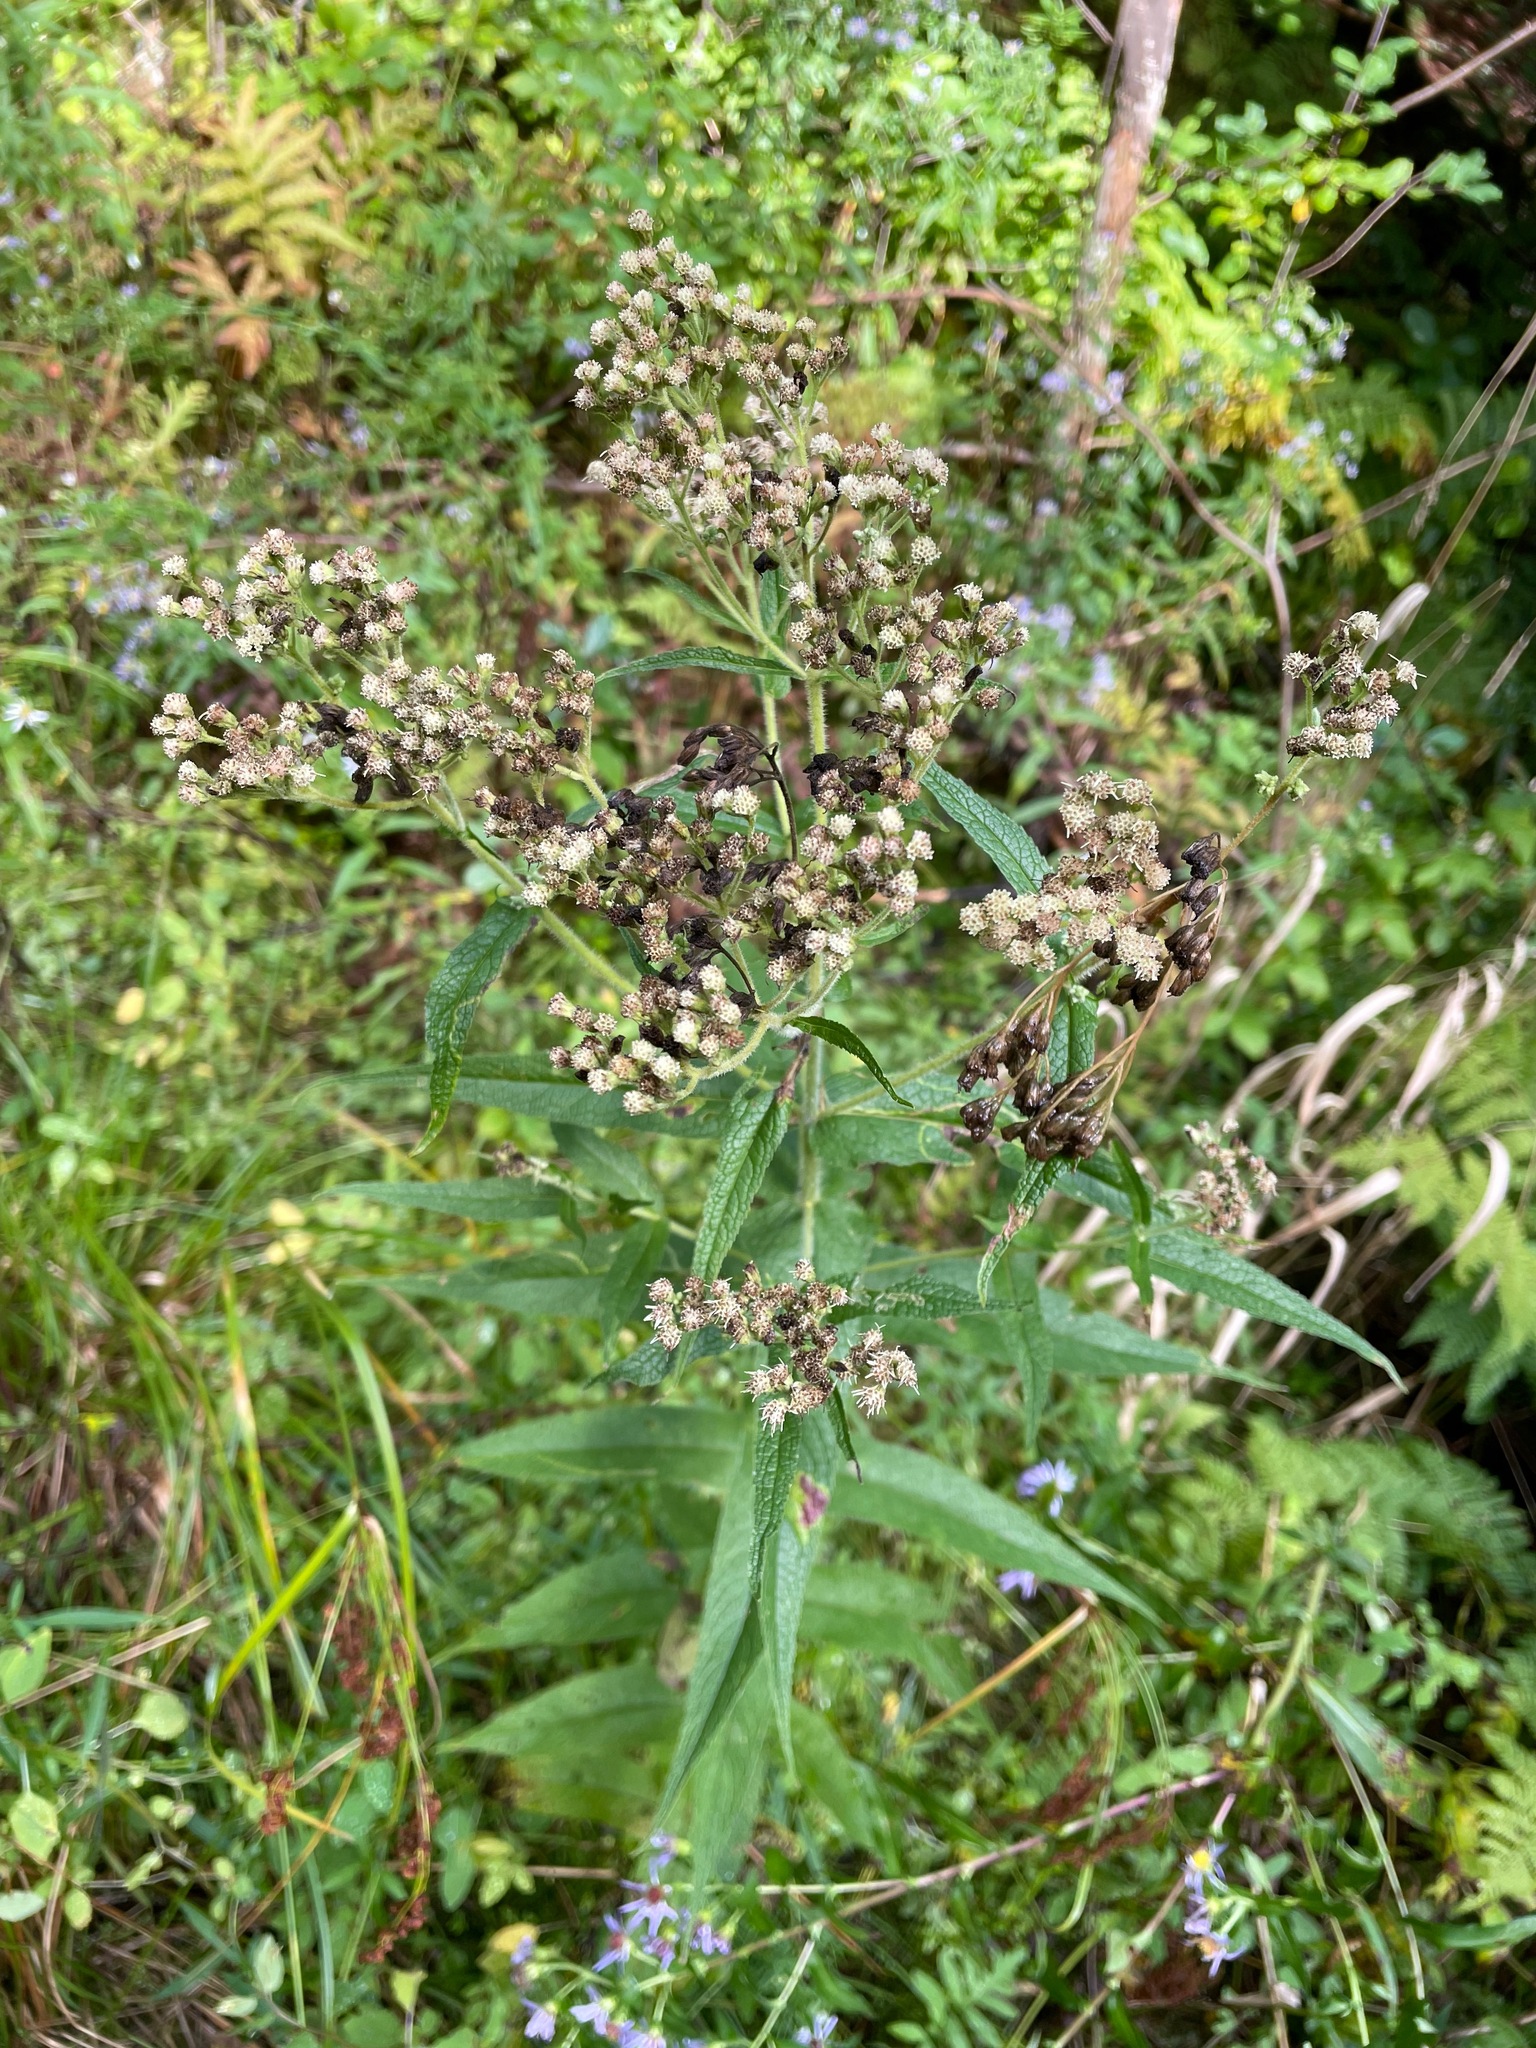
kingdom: Plantae
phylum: Tracheophyta
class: Magnoliopsida
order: Asterales
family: Asteraceae
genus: Eupatorium
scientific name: Eupatorium perfoliatum
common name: Boneset
